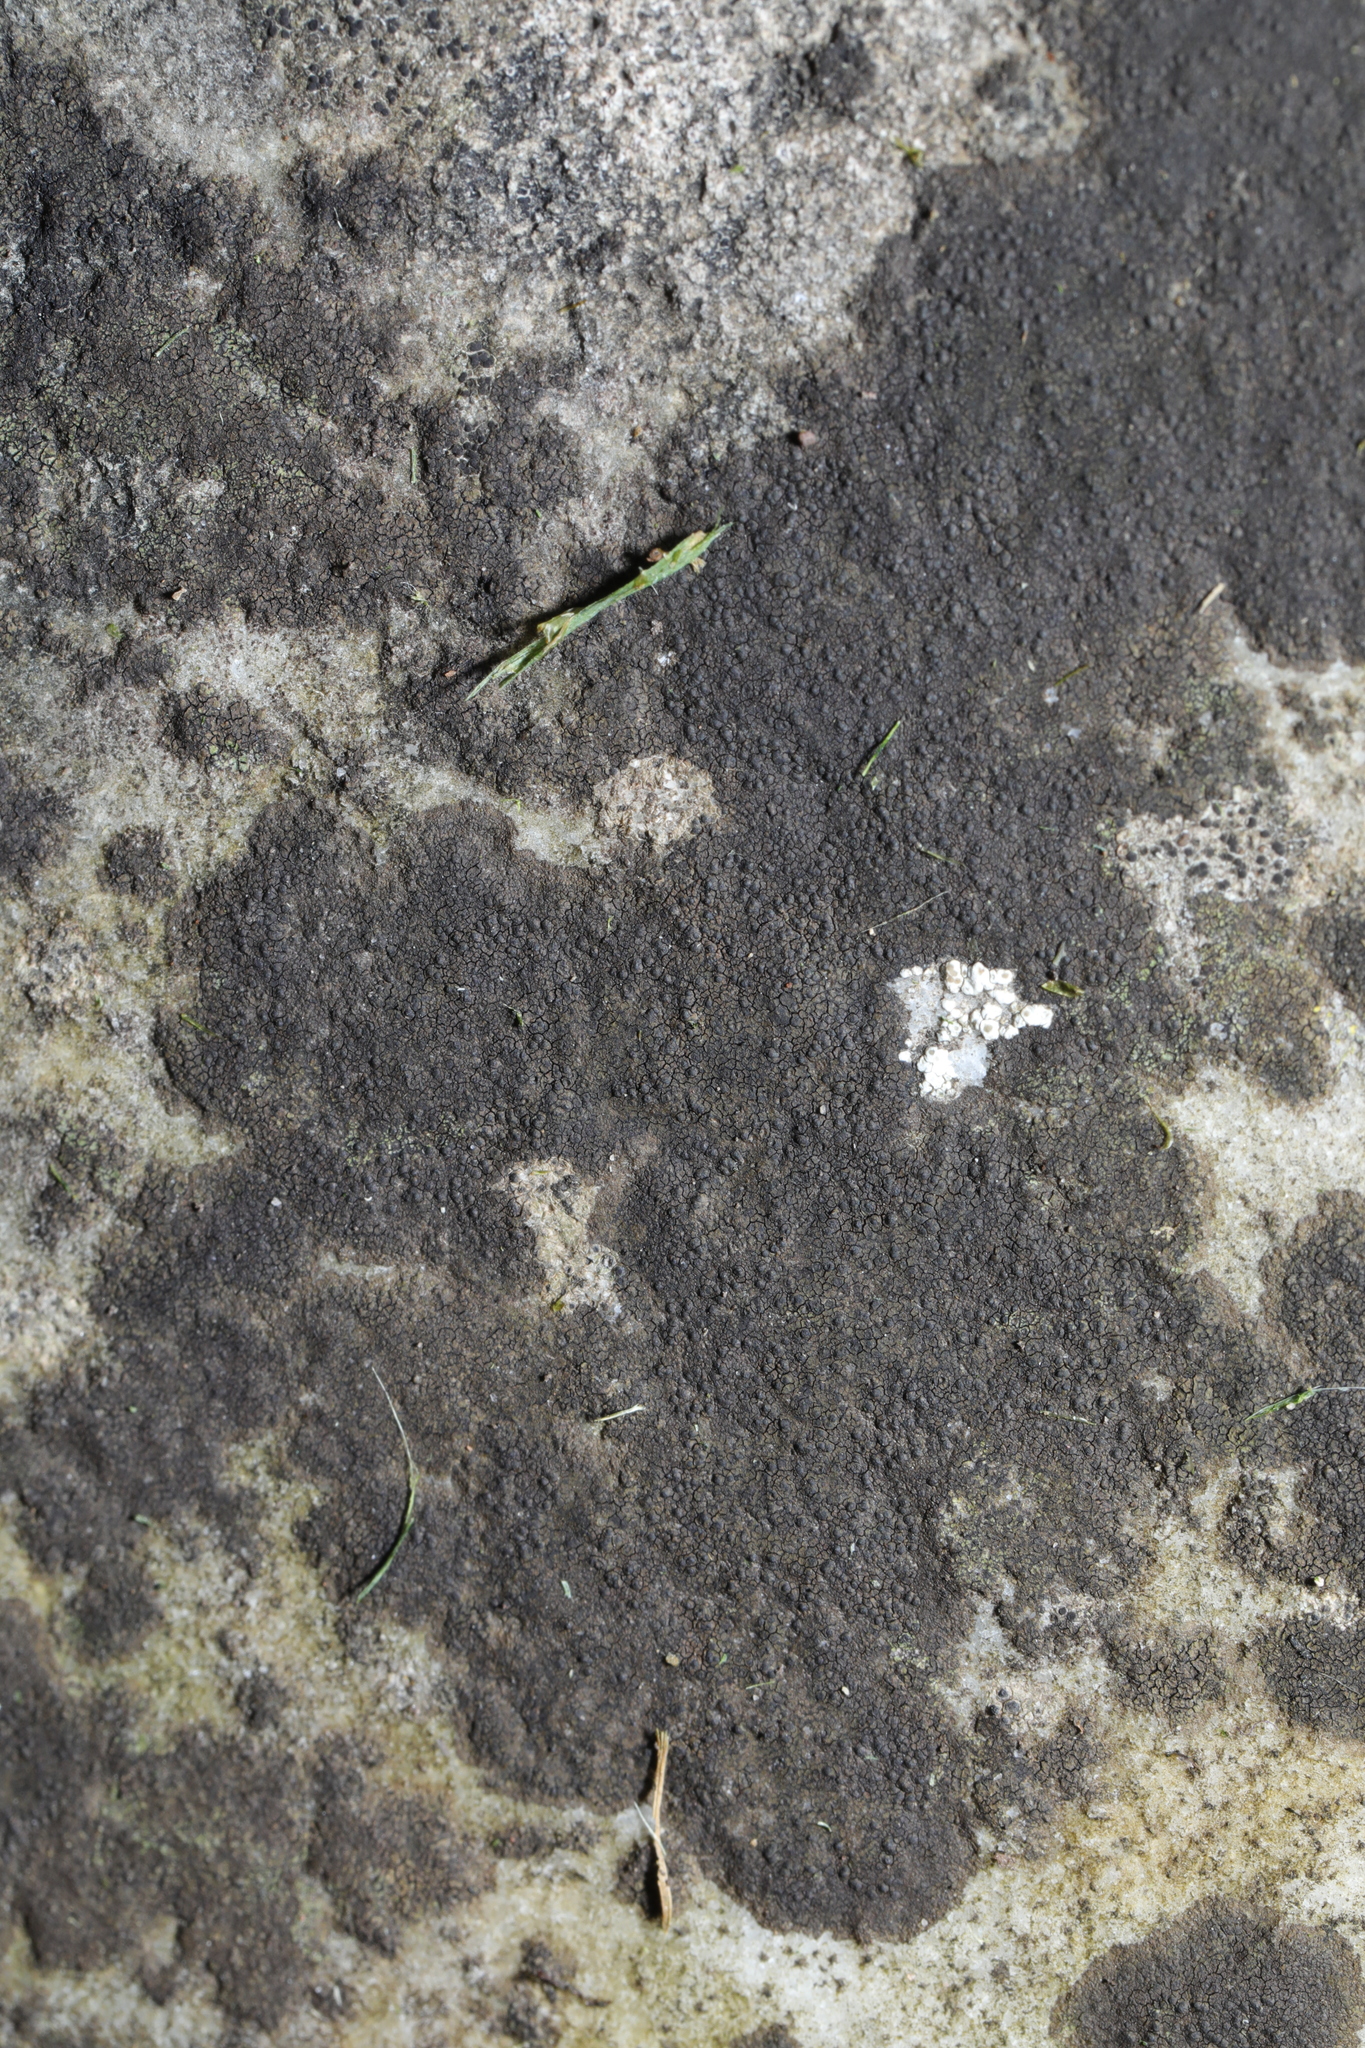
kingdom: Fungi
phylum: Ascomycota
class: Eurotiomycetes
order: Verrucariales
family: Verrucariaceae
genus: Verrucaria
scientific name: Verrucaria nigrescens
